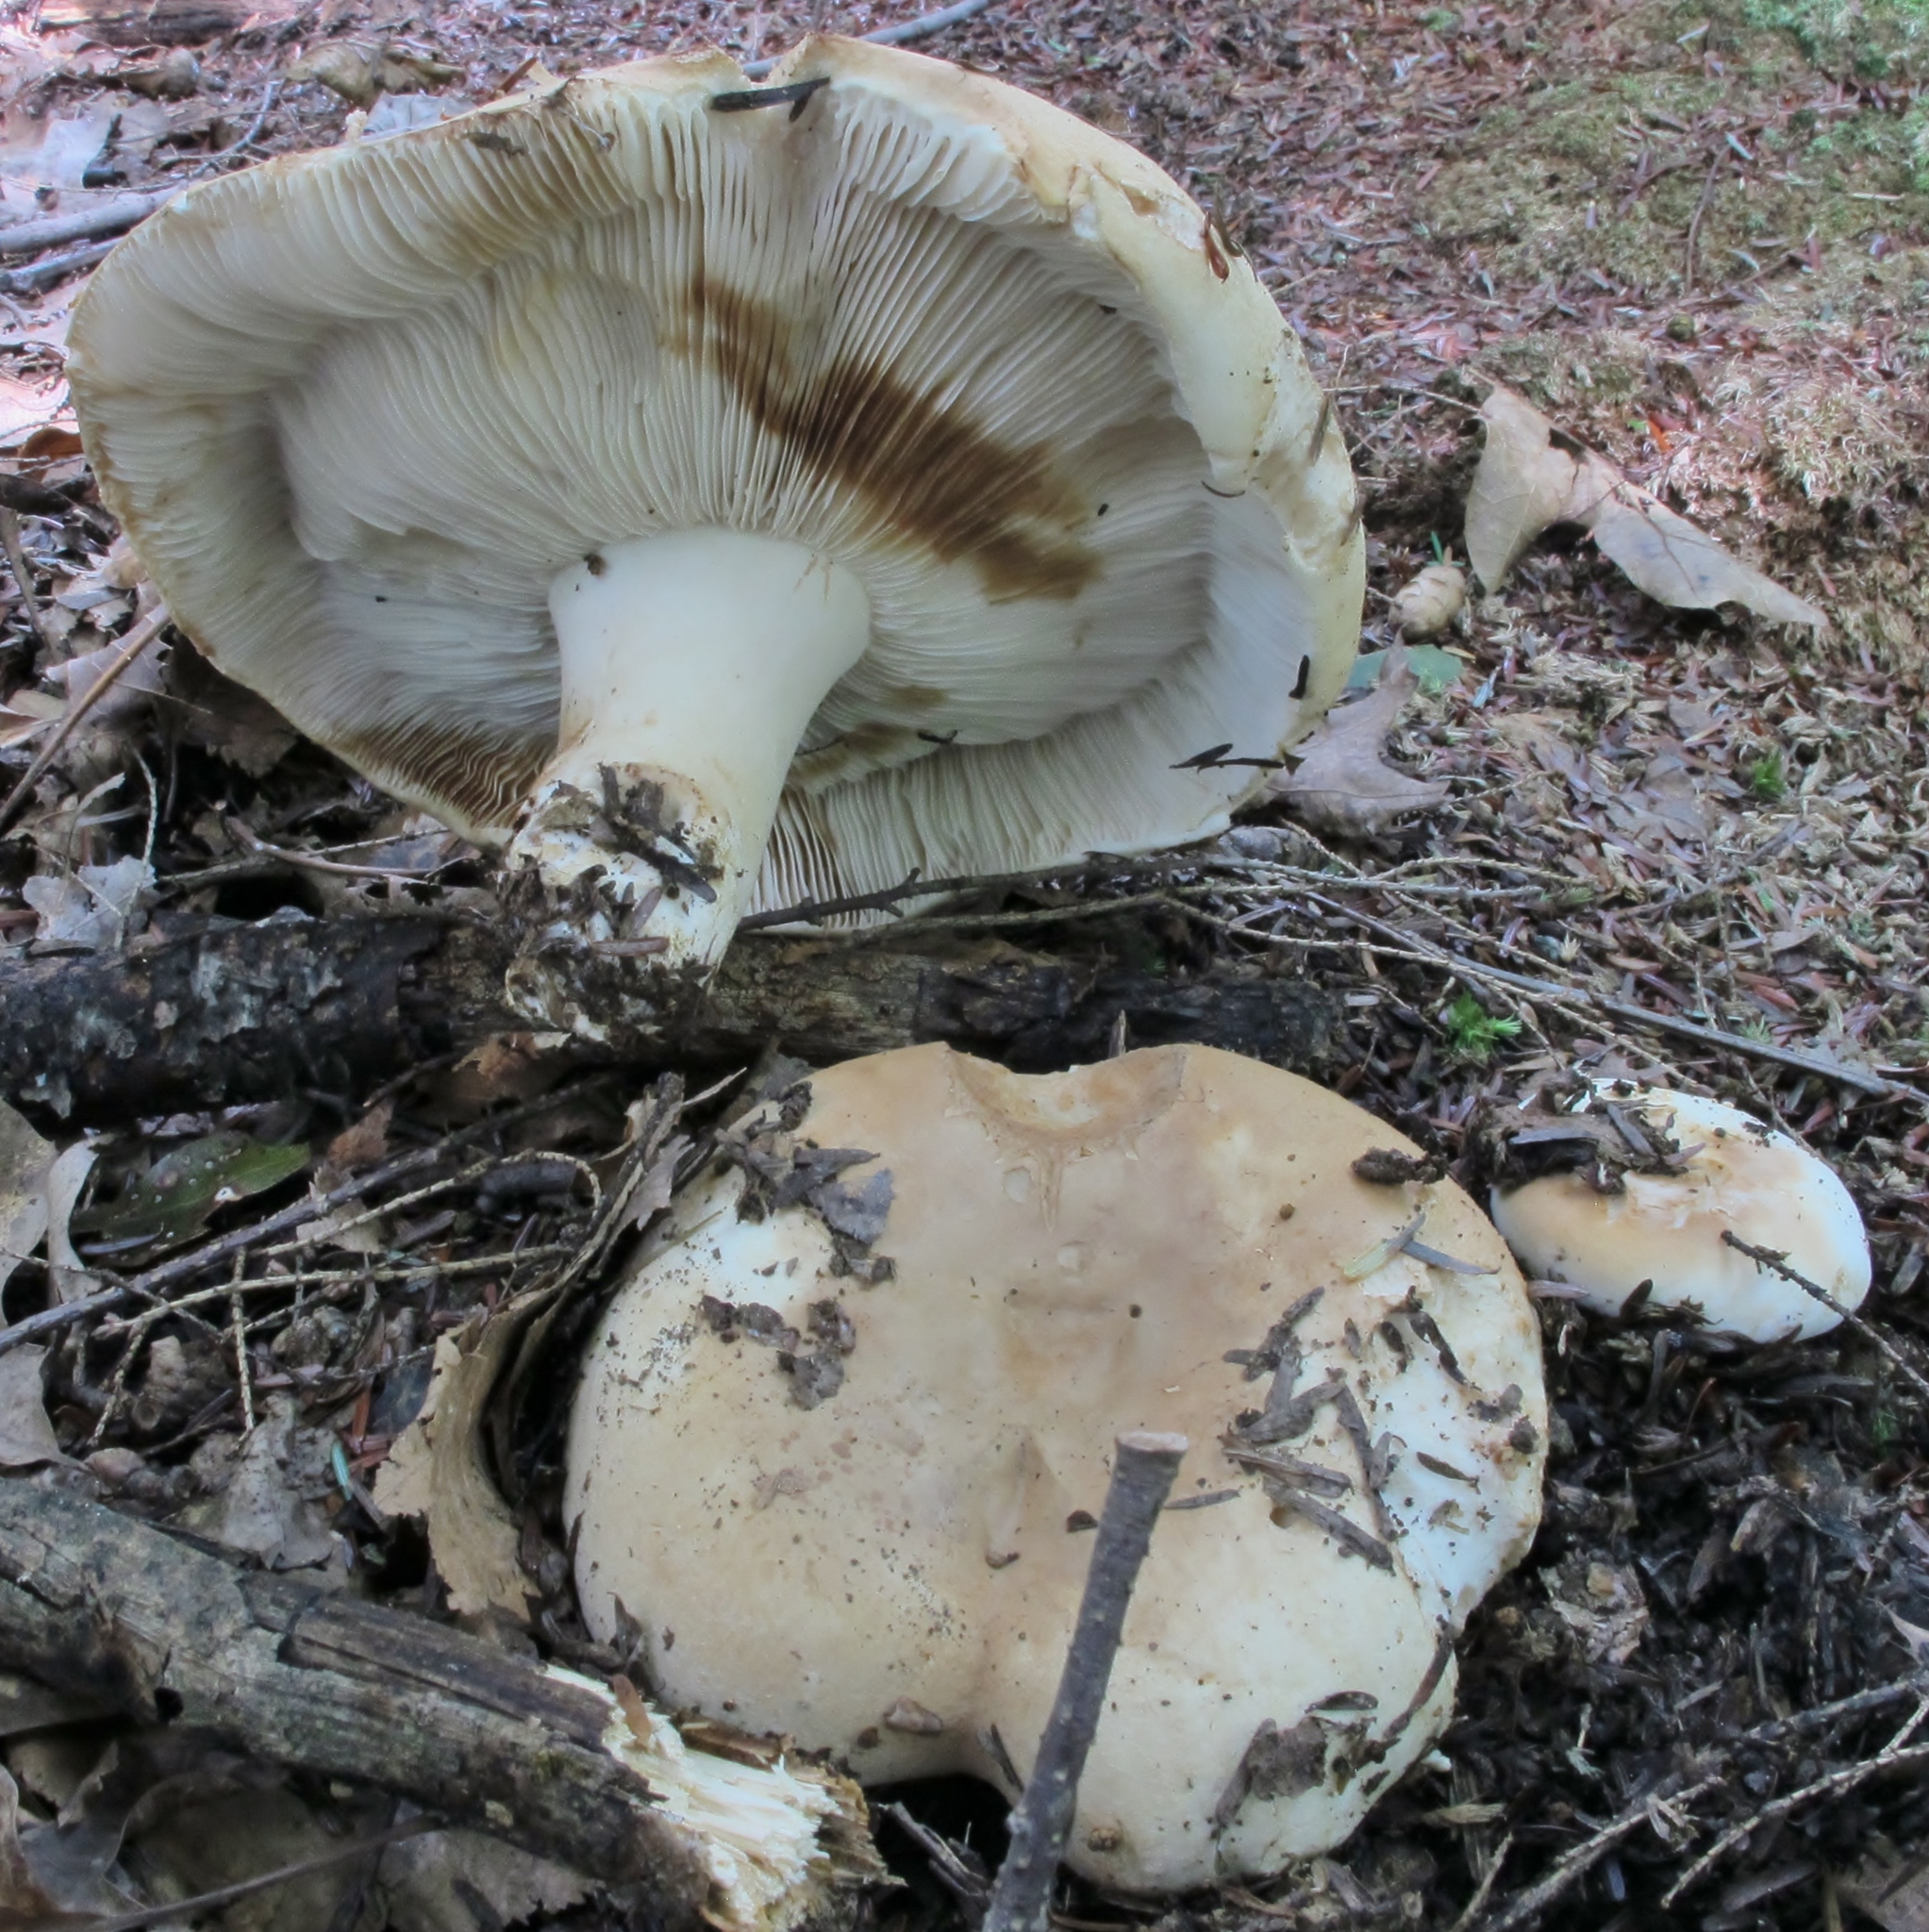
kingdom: Fungi
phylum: Basidiomycota
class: Agaricomycetes
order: Russulales
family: Russulaceae
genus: Russula
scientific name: Russula compacta
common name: Fishbiscuit russula
